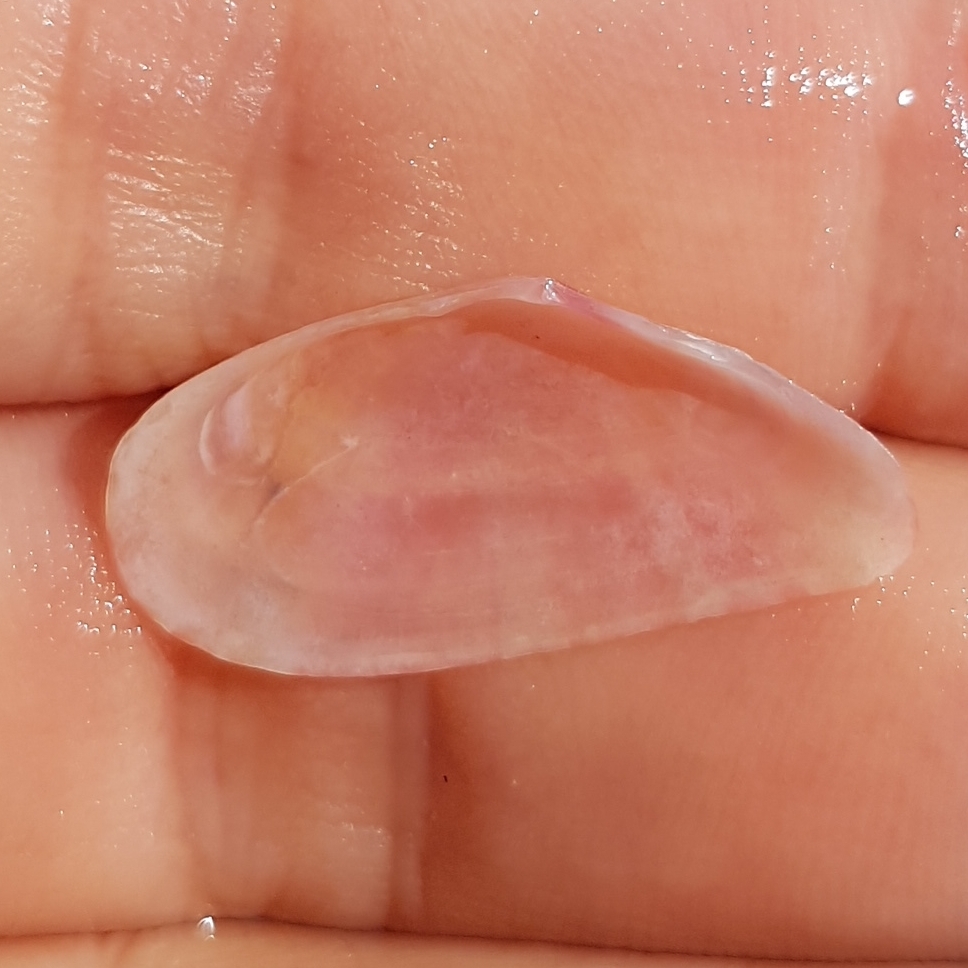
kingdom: Animalia
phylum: Mollusca
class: Bivalvia
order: Cardiida
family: Tellinidae
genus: Moerella
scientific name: Moerella pulchella
